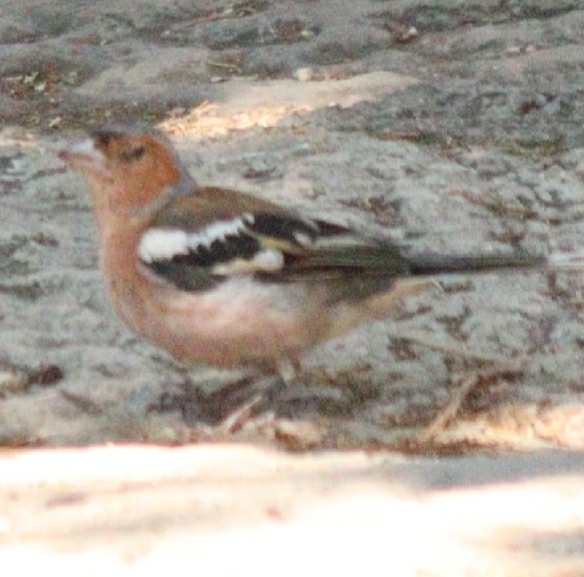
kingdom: Animalia
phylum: Chordata
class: Aves
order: Passeriformes
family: Fringillidae
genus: Fringilla
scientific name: Fringilla coelebs
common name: Common chaffinch
